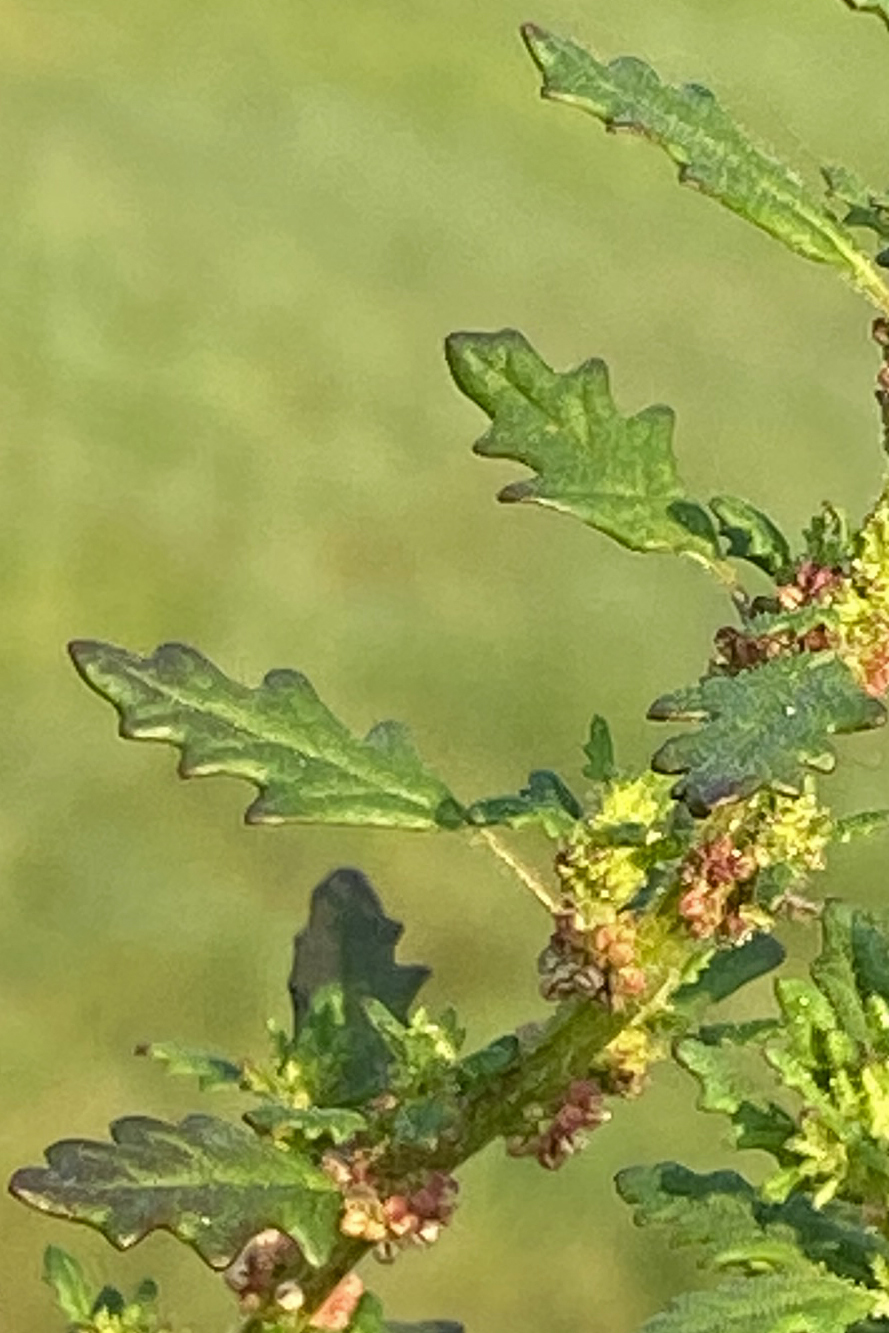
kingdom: Plantae
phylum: Tracheophyta
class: Magnoliopsida
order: Caryophyllales
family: Amaranthaceae
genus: Dysphania
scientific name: Dysphania pumilio
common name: Clammy goosefoot
